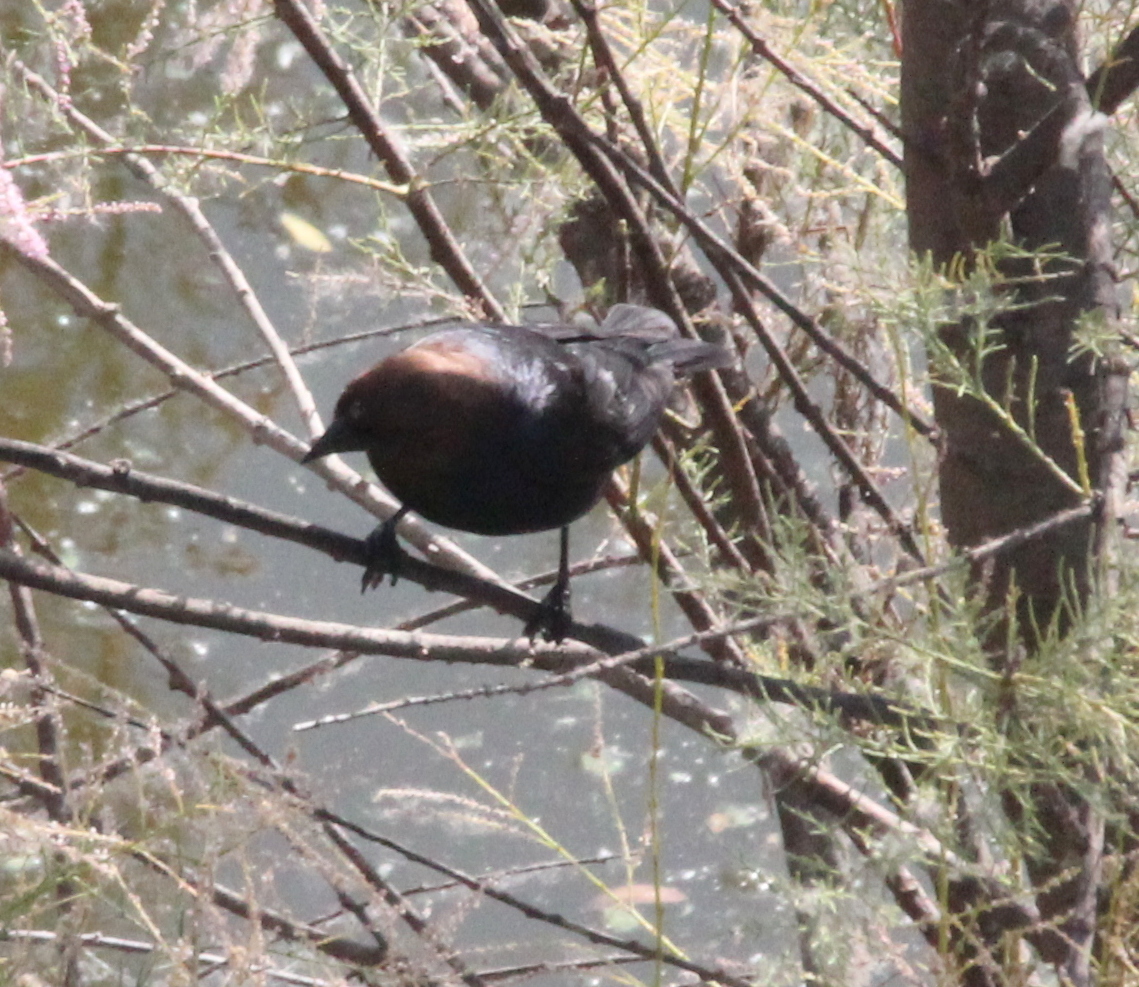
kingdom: Animalia
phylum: Chordata
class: Aves
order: Passeriformes
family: Icteridae
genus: Molothrus
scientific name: Molothrus ater
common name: Brown-headed cowbird
